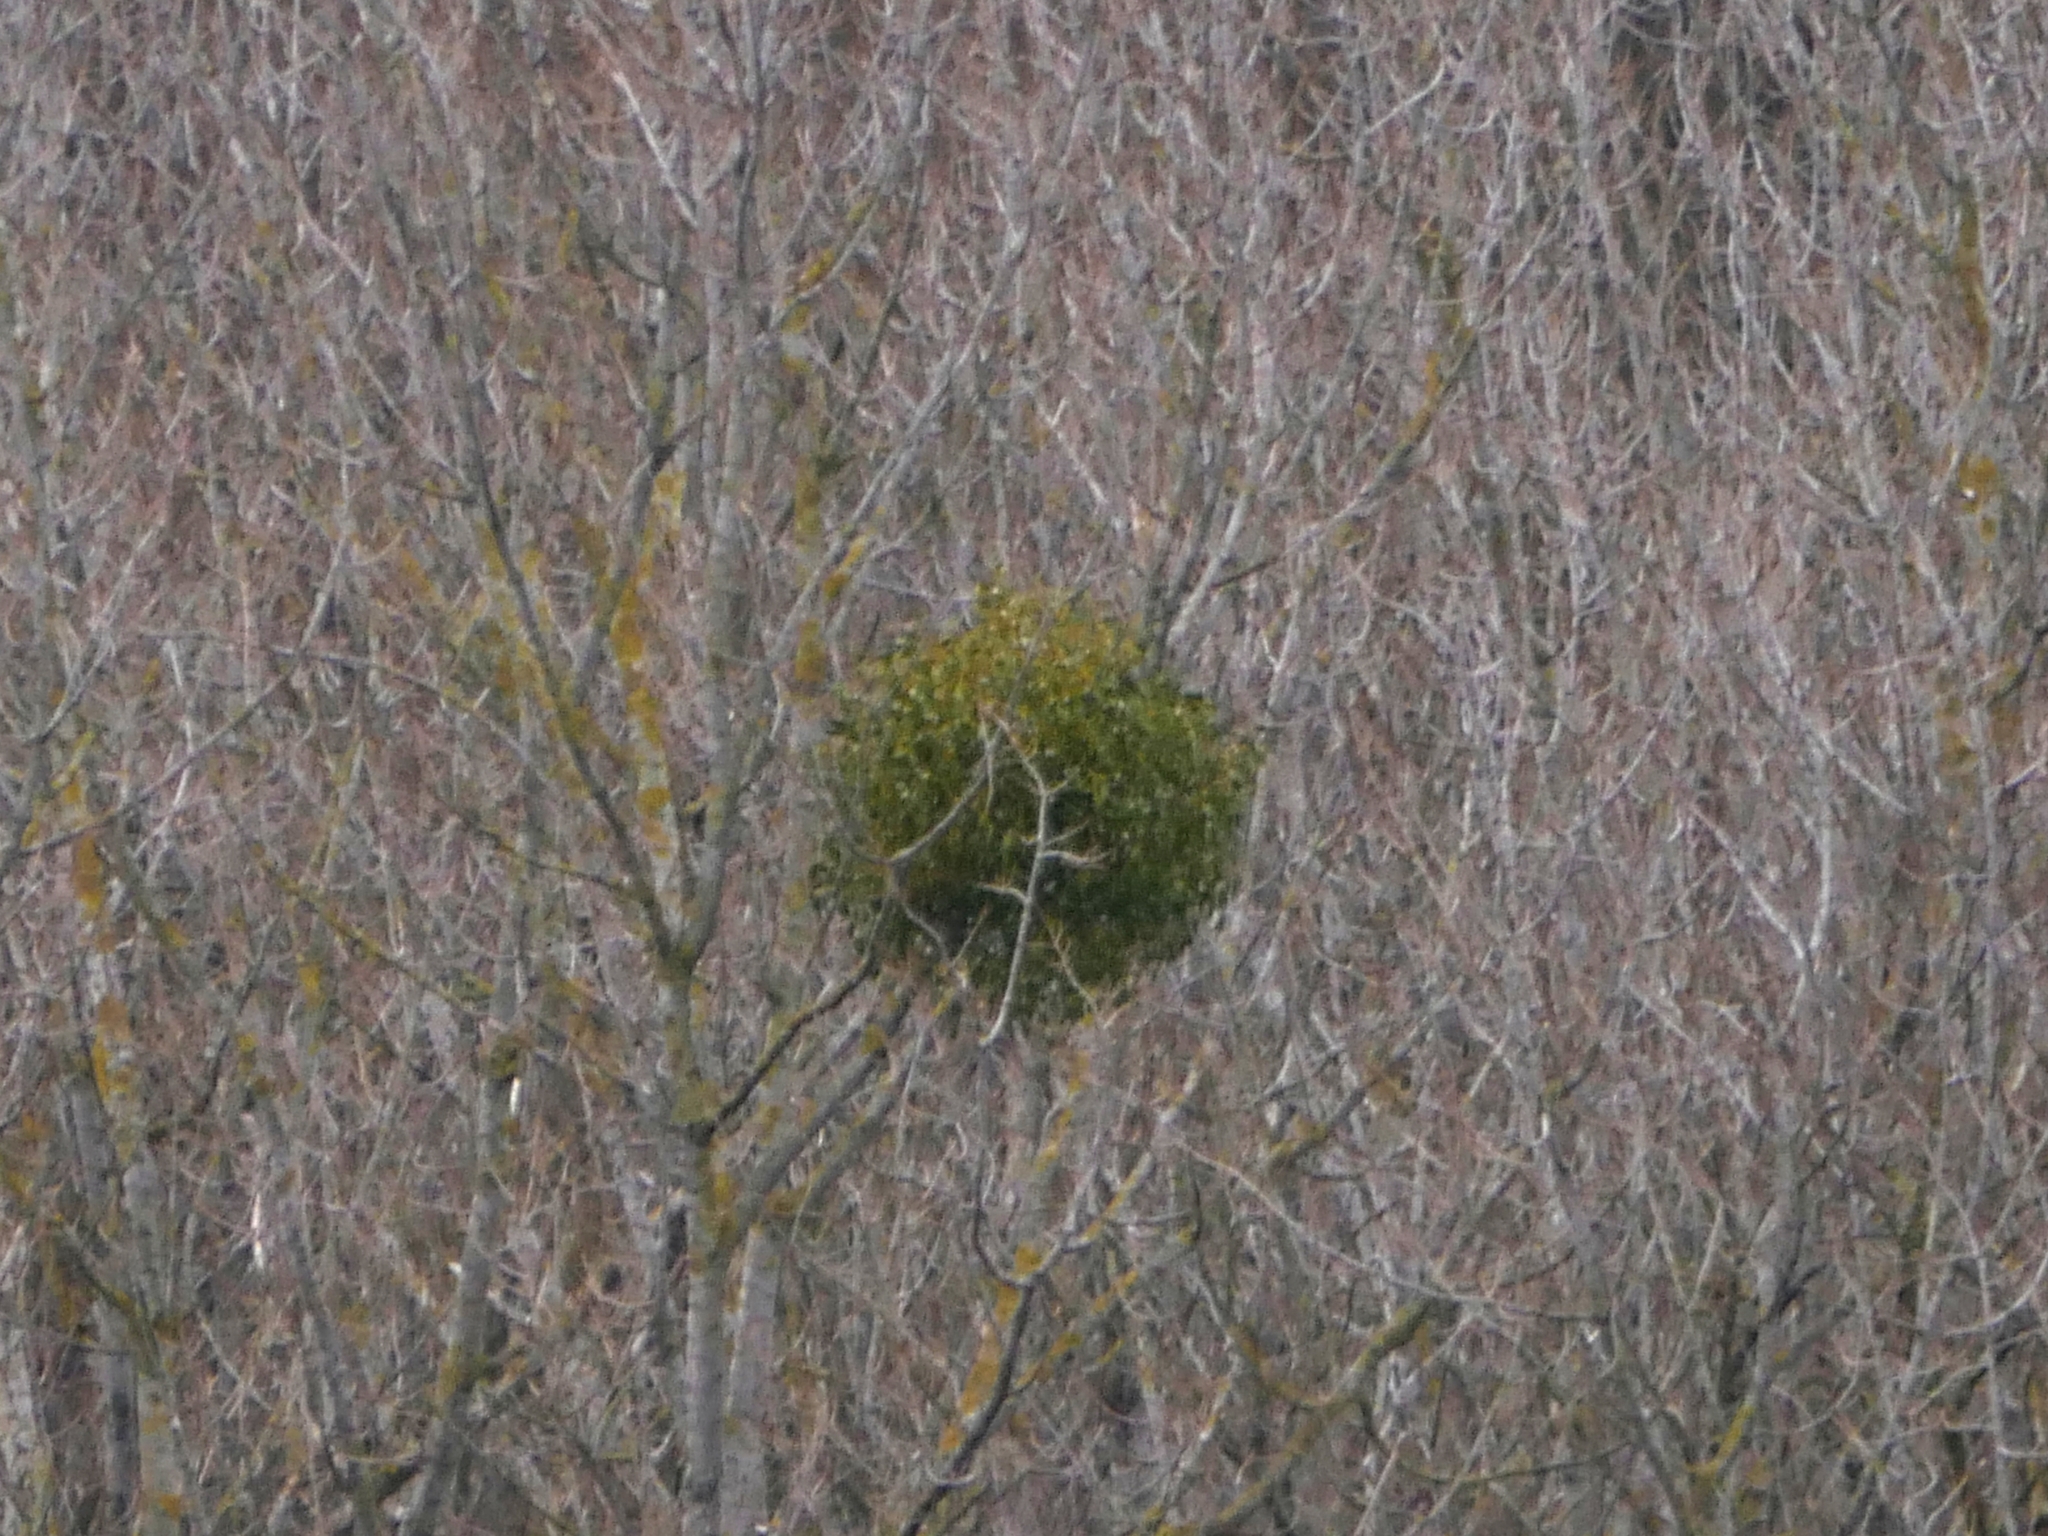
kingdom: Plantae
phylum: Tracheophyta
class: Magnoliopsida
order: Santalales
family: Viscaceae
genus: Viscum
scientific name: Viscum album
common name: Mistletoe
